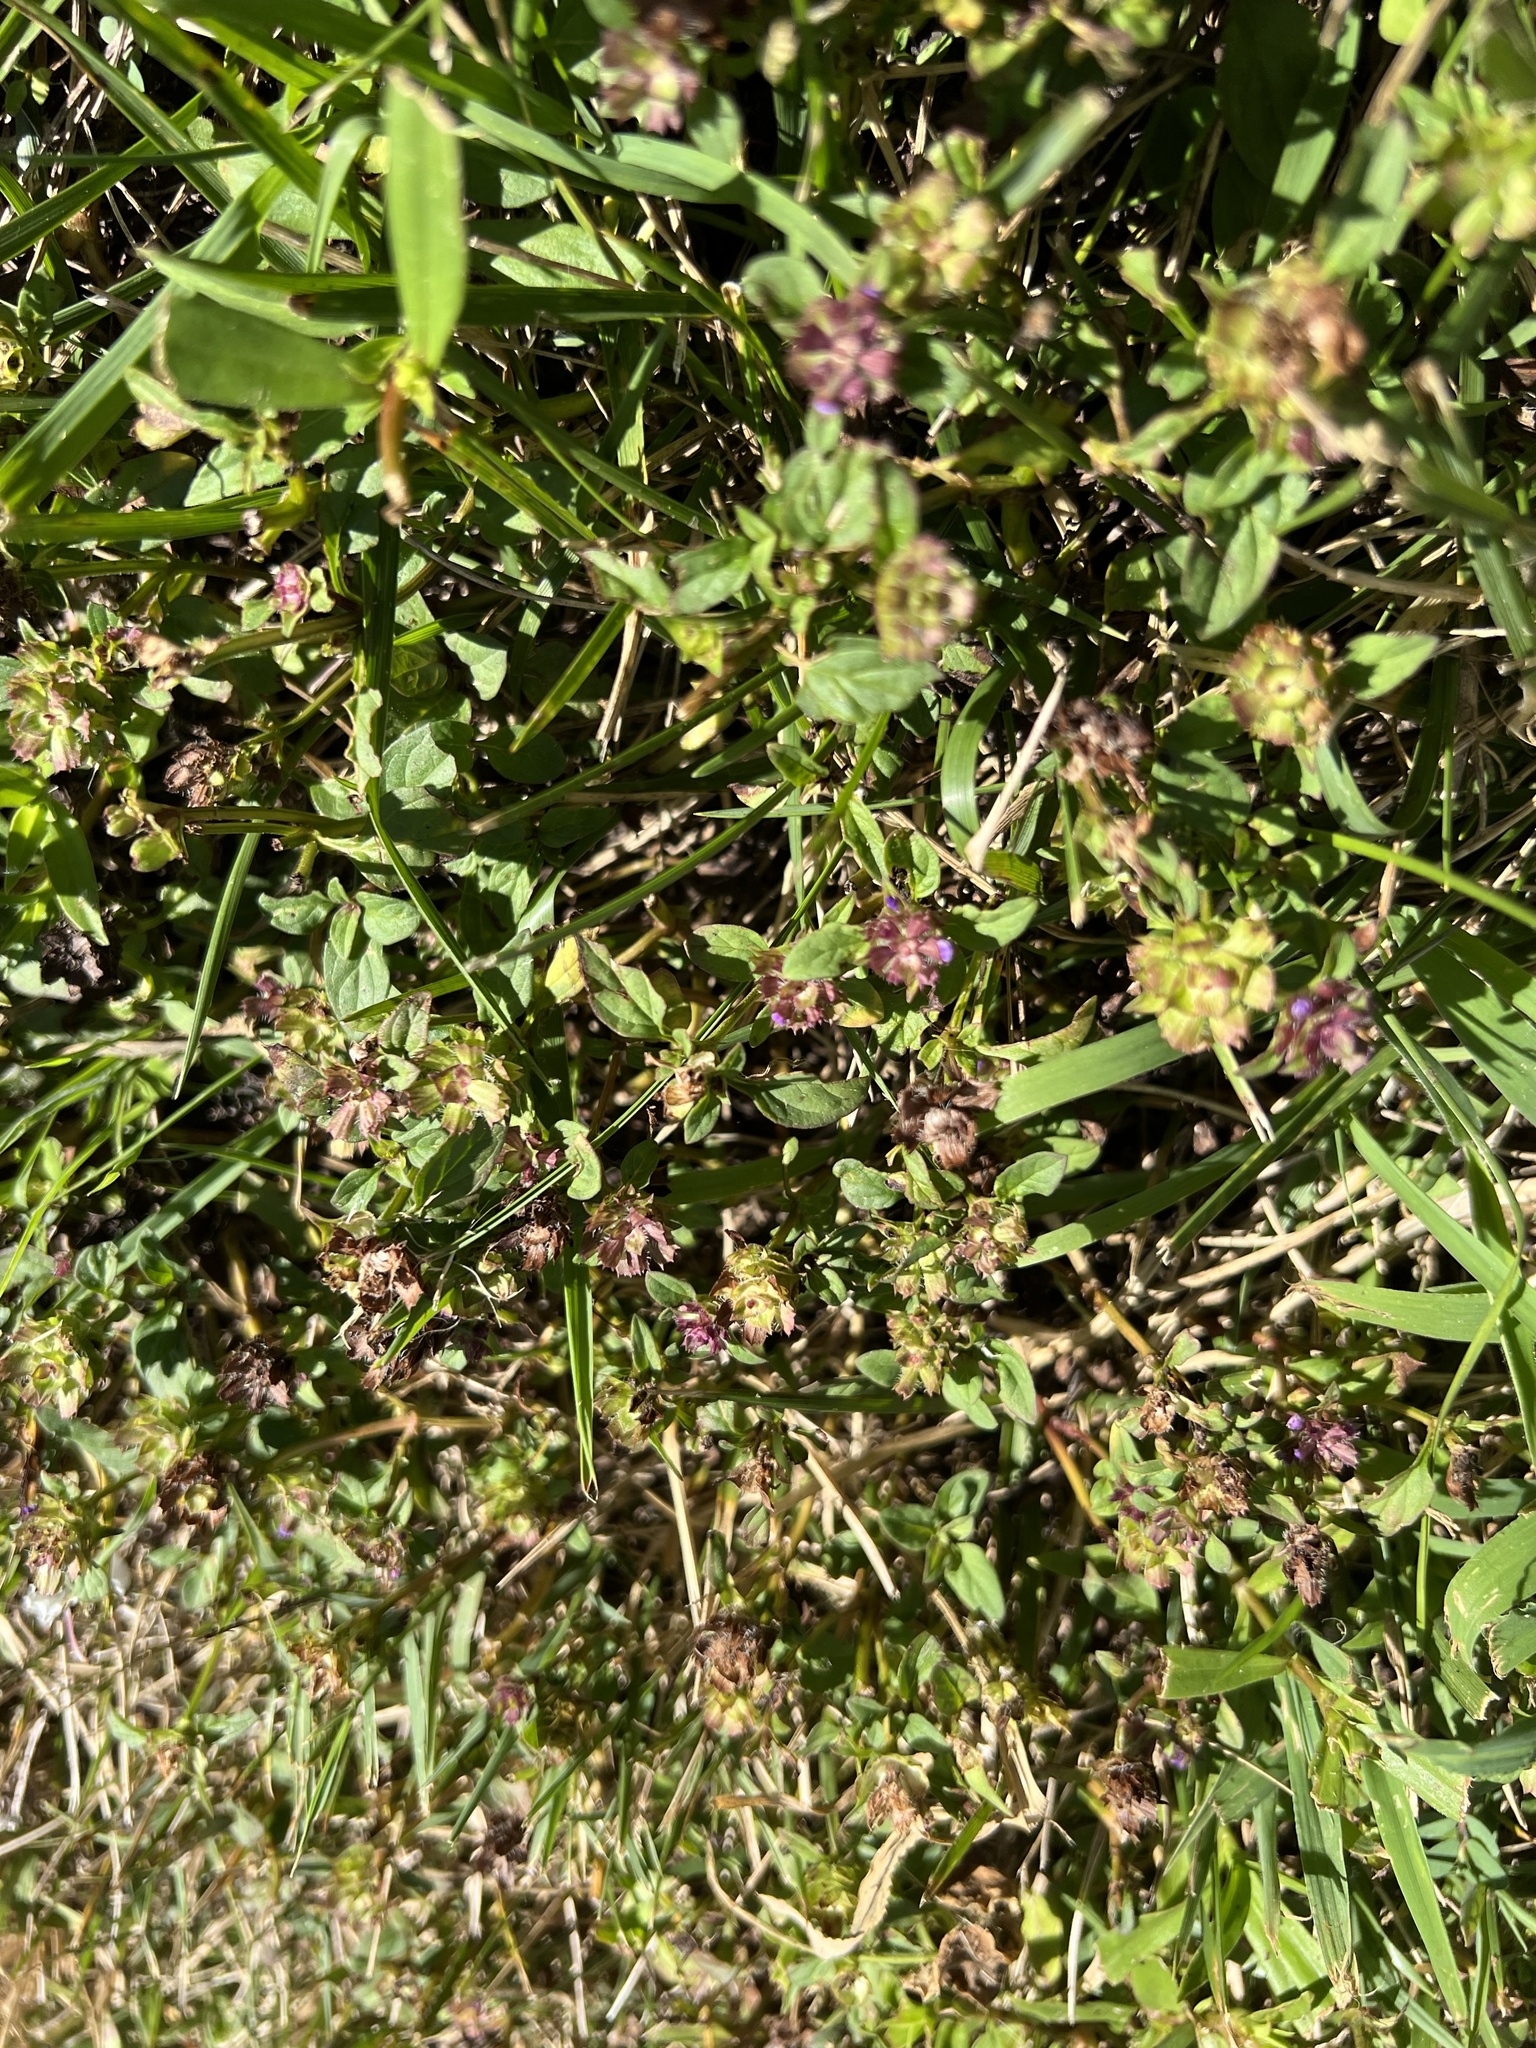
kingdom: Plantae
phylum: Tracheophyta
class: Magnoliopsida
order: Lamiales
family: Lamiaceae
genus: Prunella
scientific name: Prunella vulgaris
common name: Heal-all
